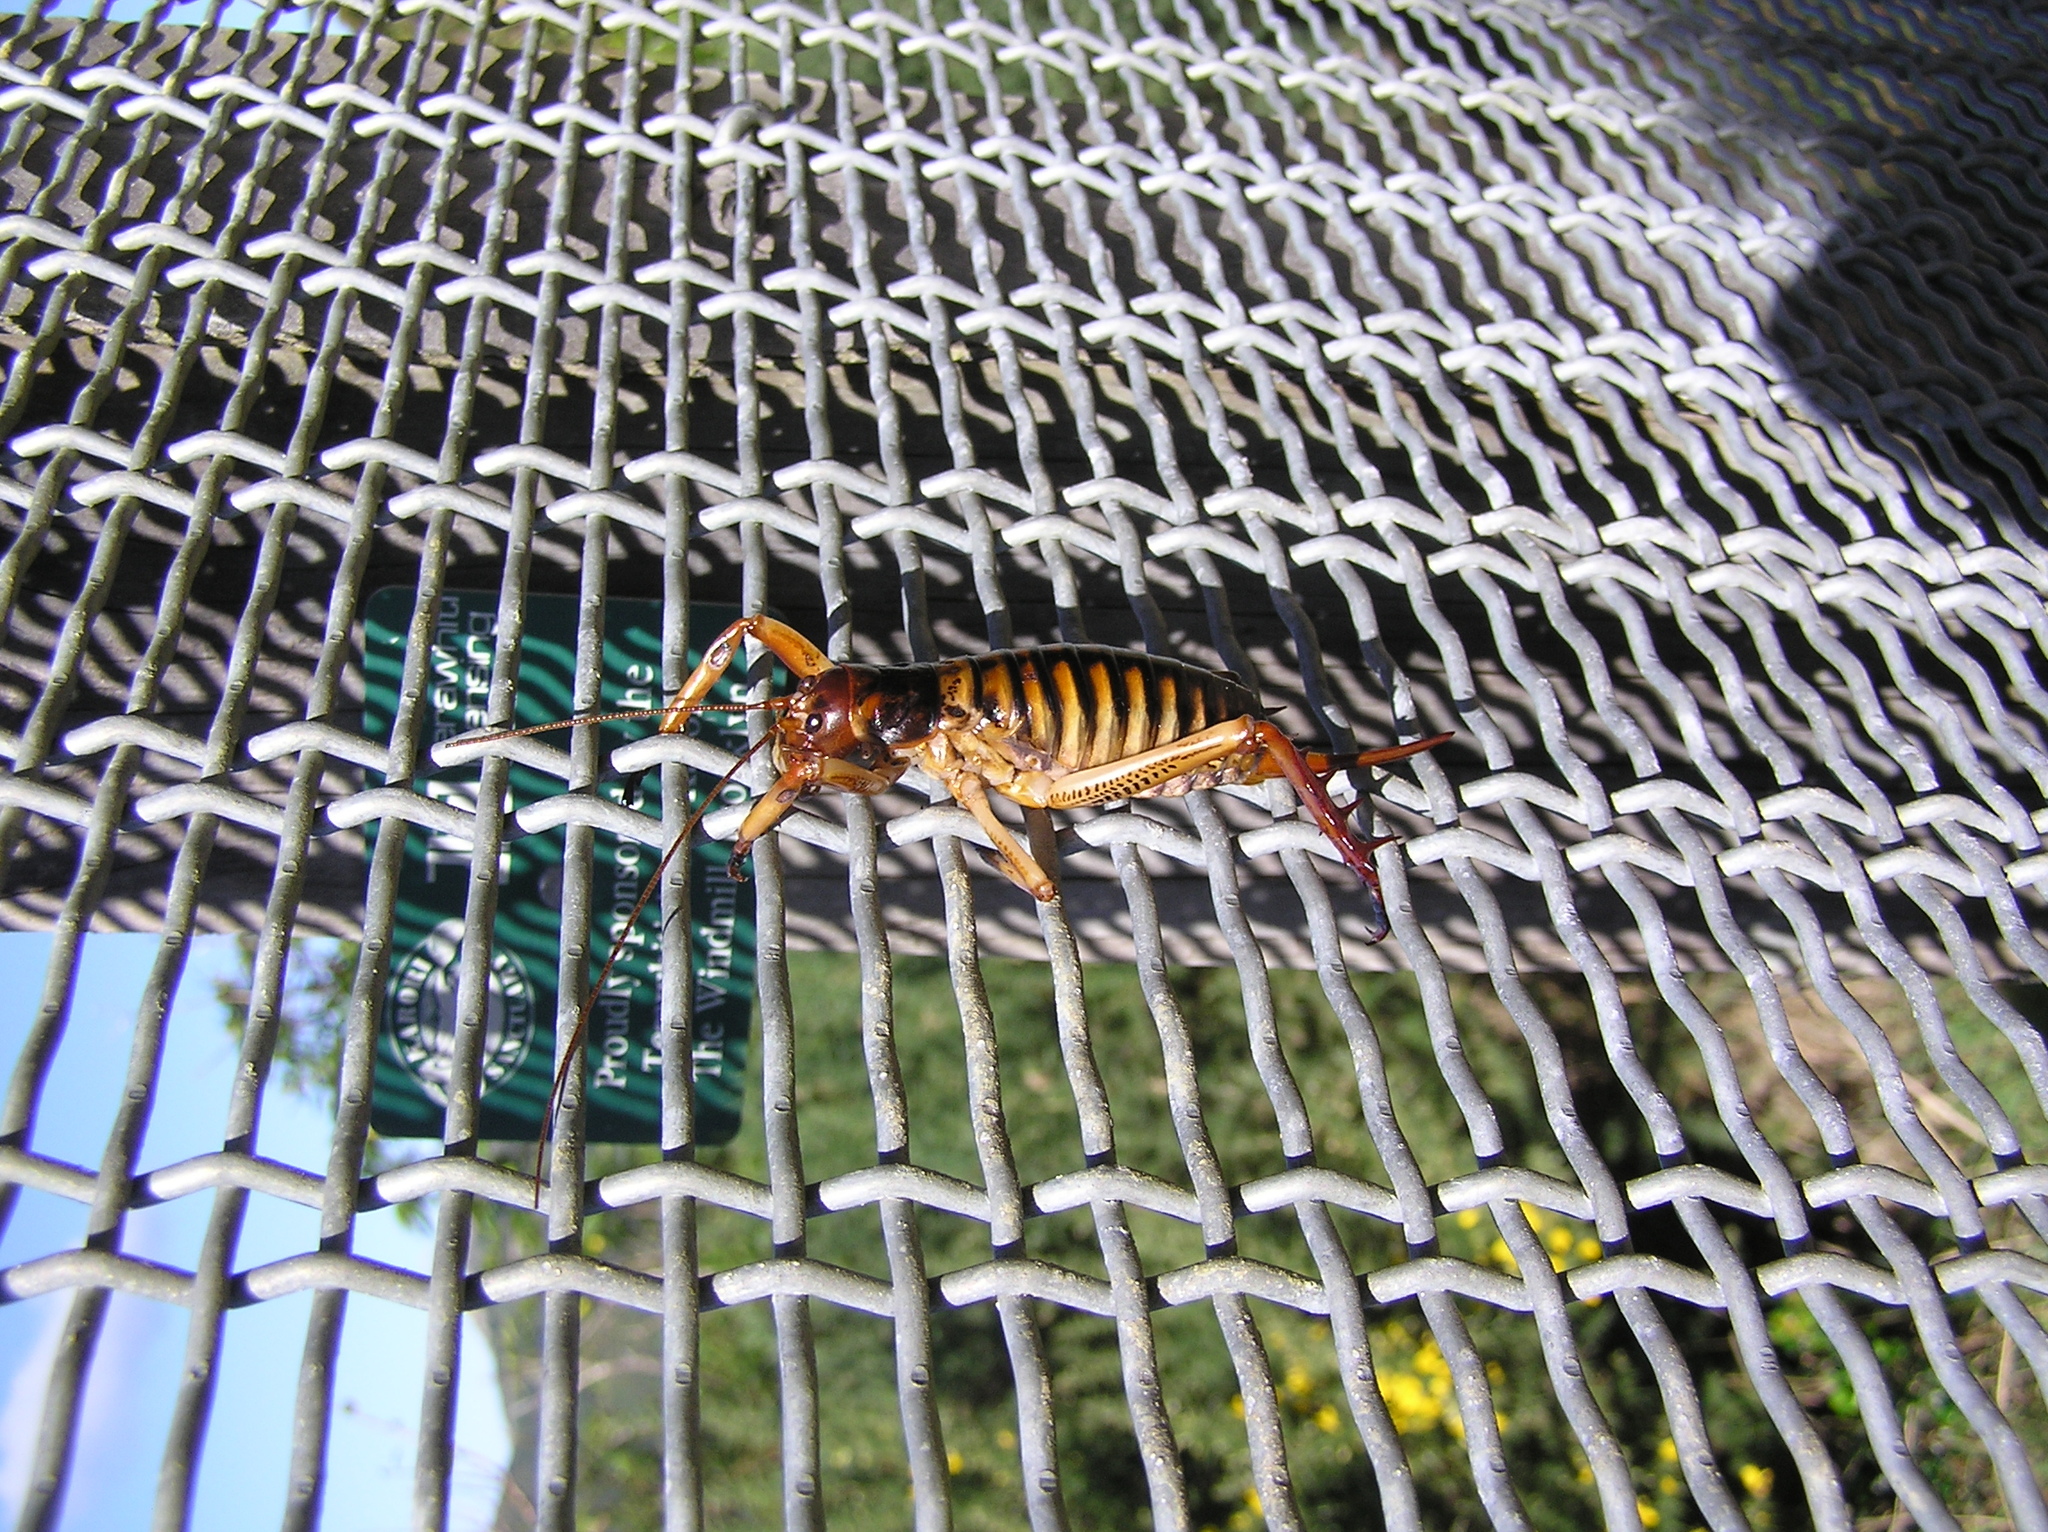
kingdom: Animalia
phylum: Arthropoda
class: Insecta
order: Orthoptera
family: Anostostomatidae
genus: Hemideina
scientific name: Hemideina crassidens
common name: Wellington tree weta
